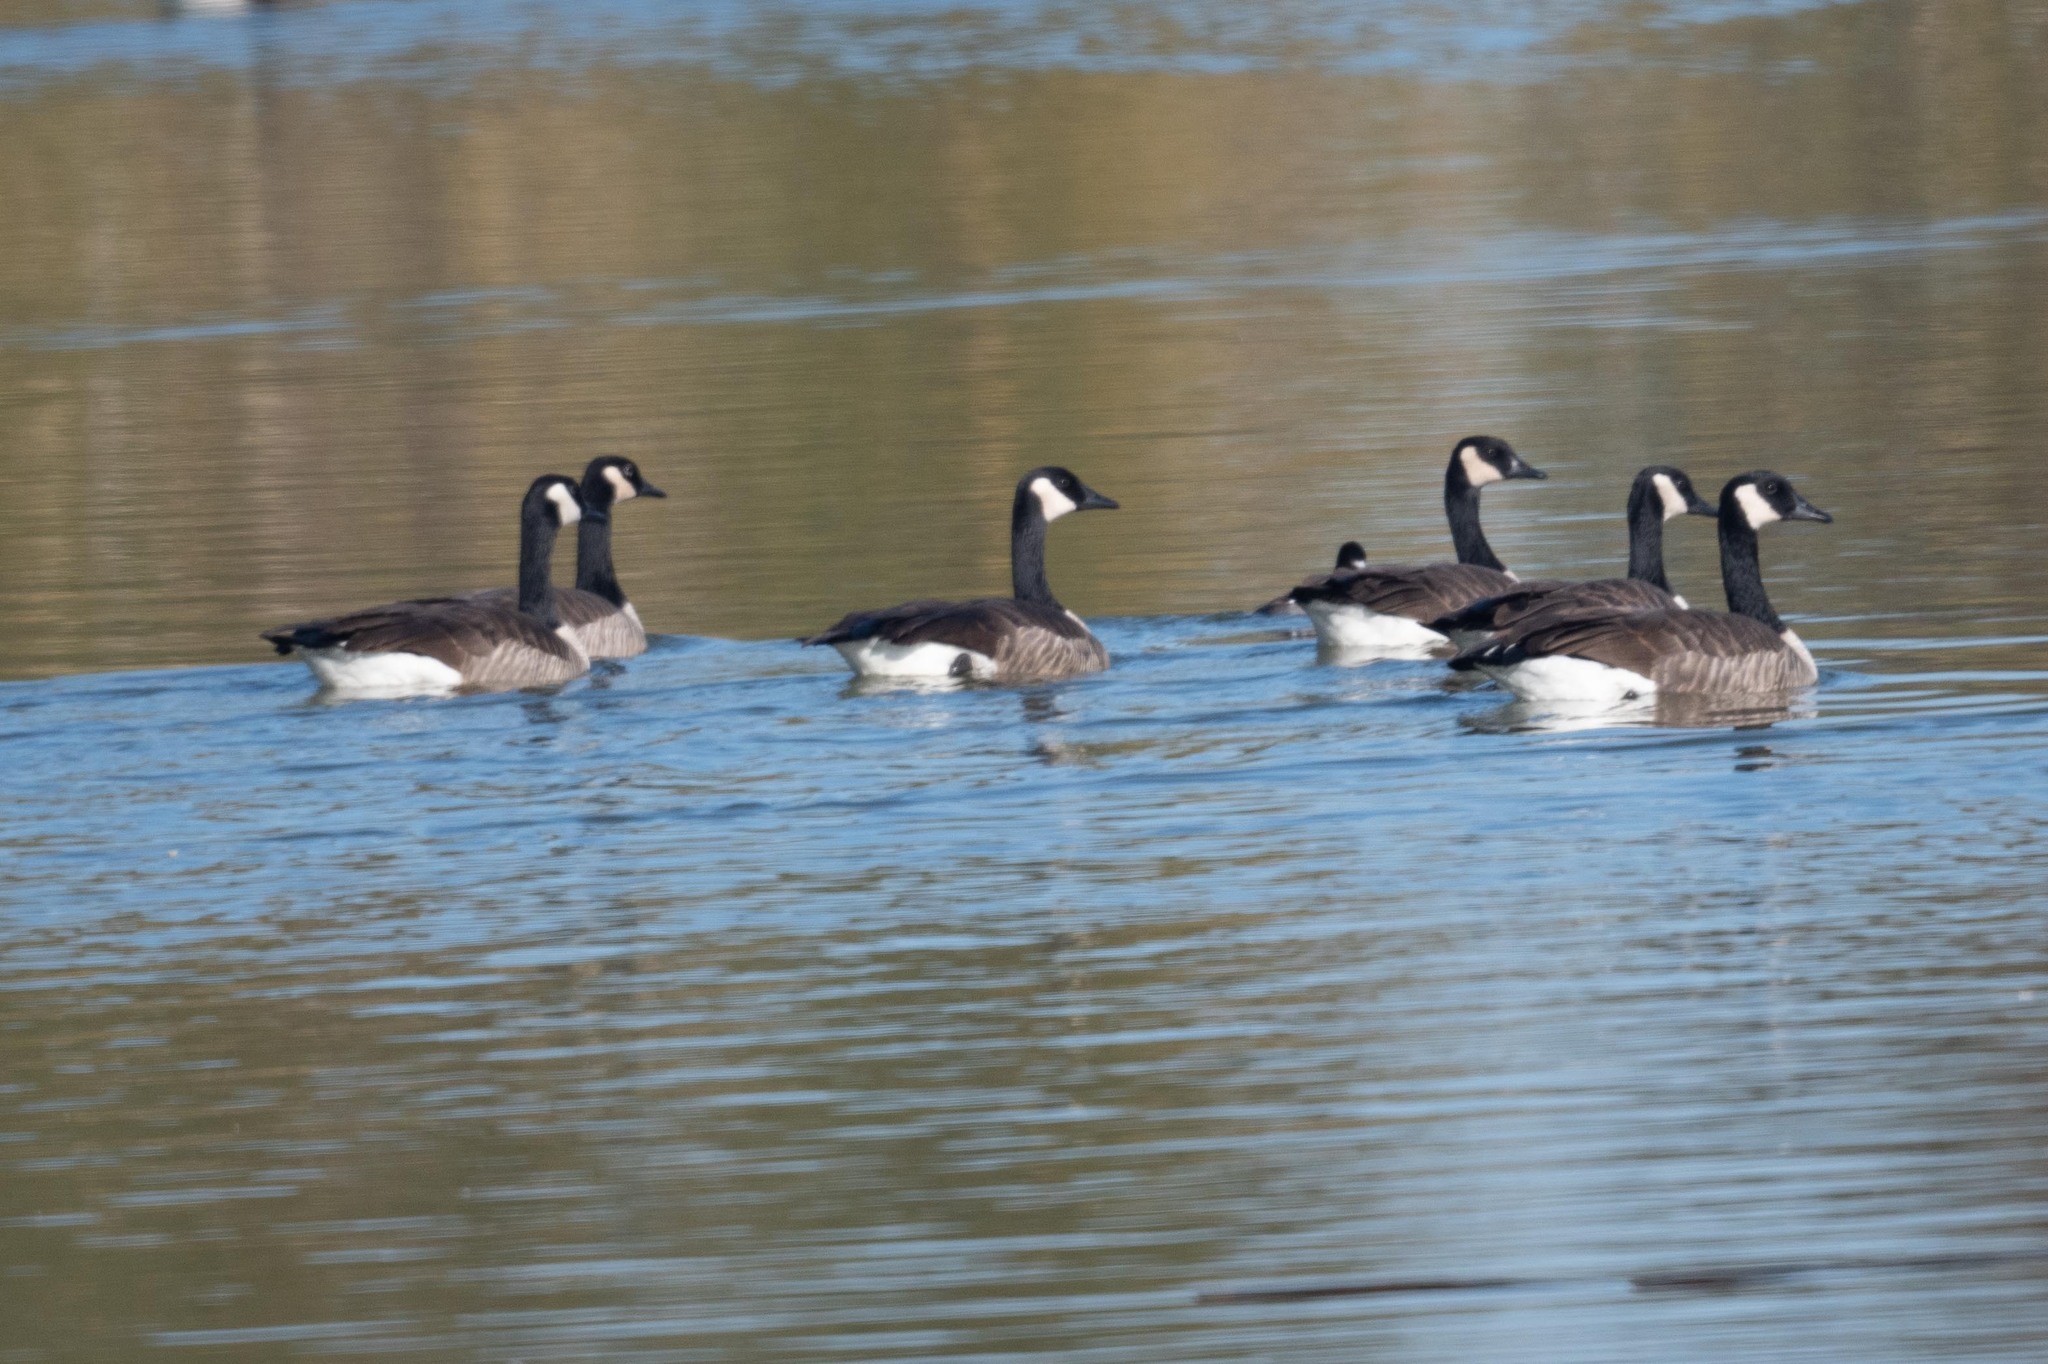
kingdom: Animalia
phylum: Chordata
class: Aves
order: Anseriformes
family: Anatidae
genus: Branta
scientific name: Branta canadensis
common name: Canada goose
